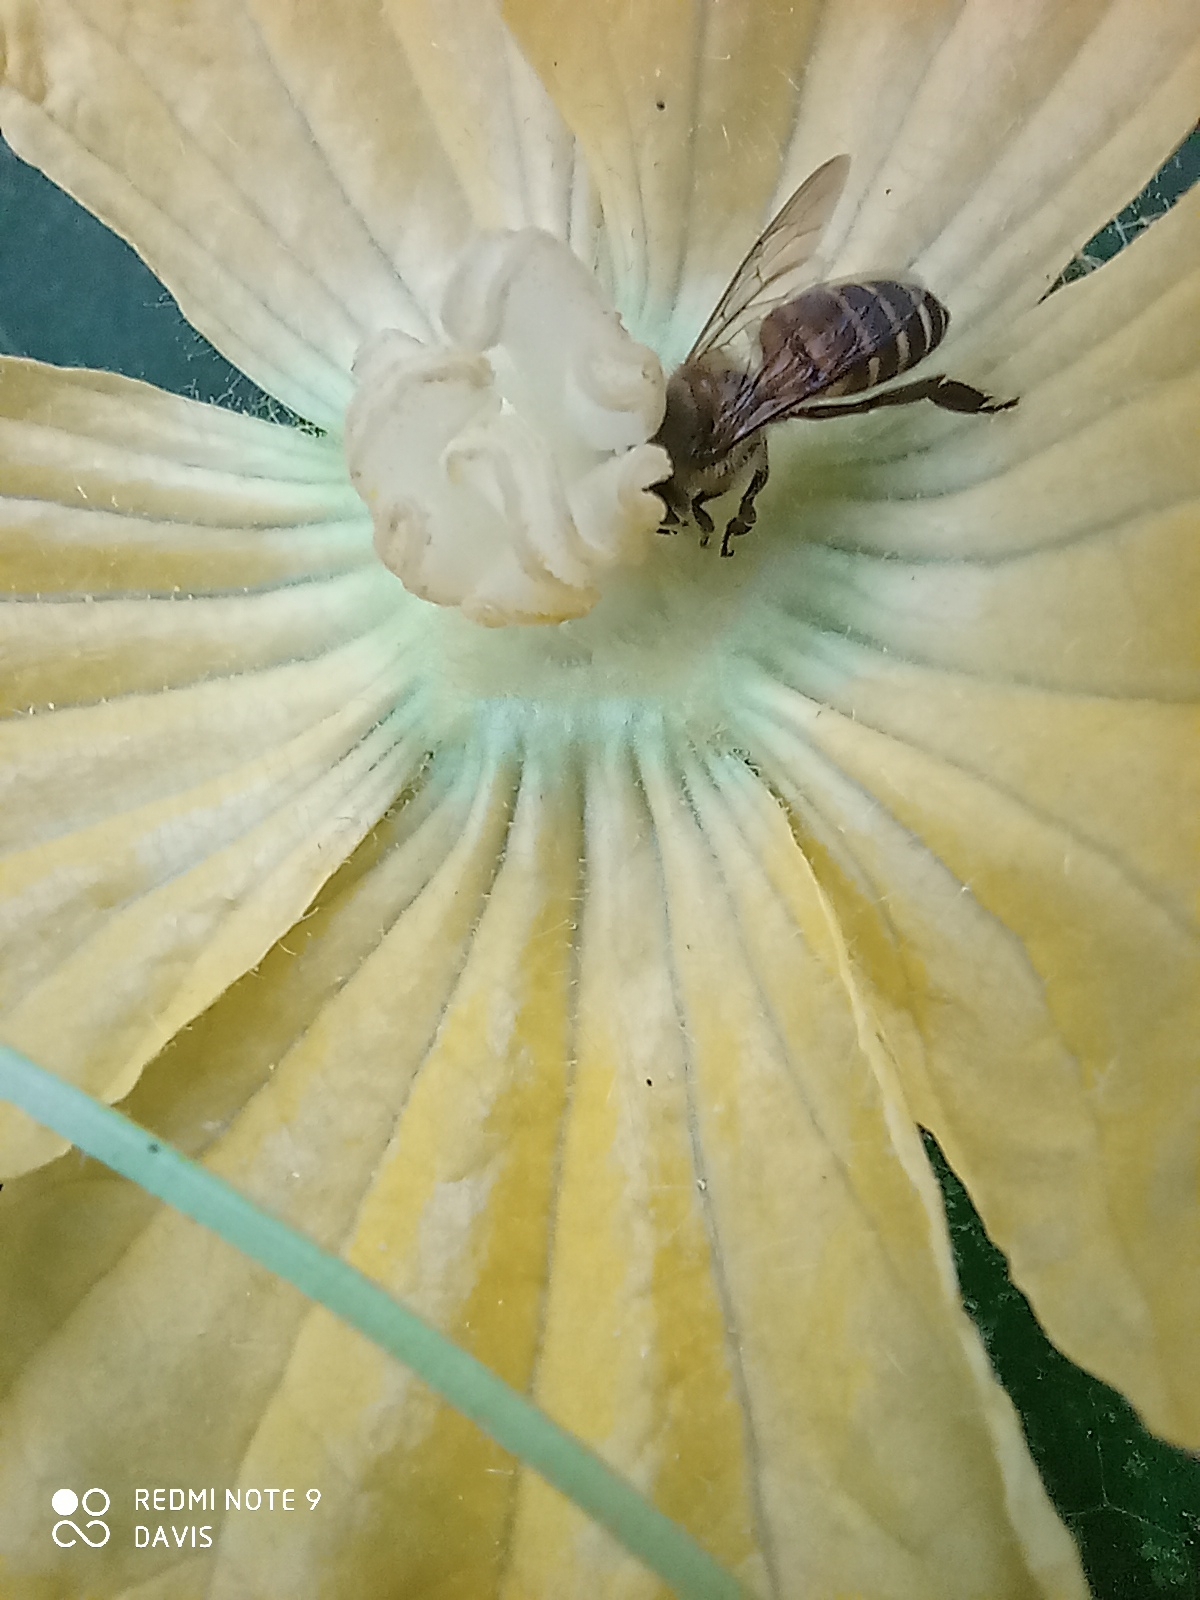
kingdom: Animalia
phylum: Arthropoda
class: Insecta
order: Hymenoptera
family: Apidae
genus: Apis
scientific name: Apis cerana
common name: Honey bee
